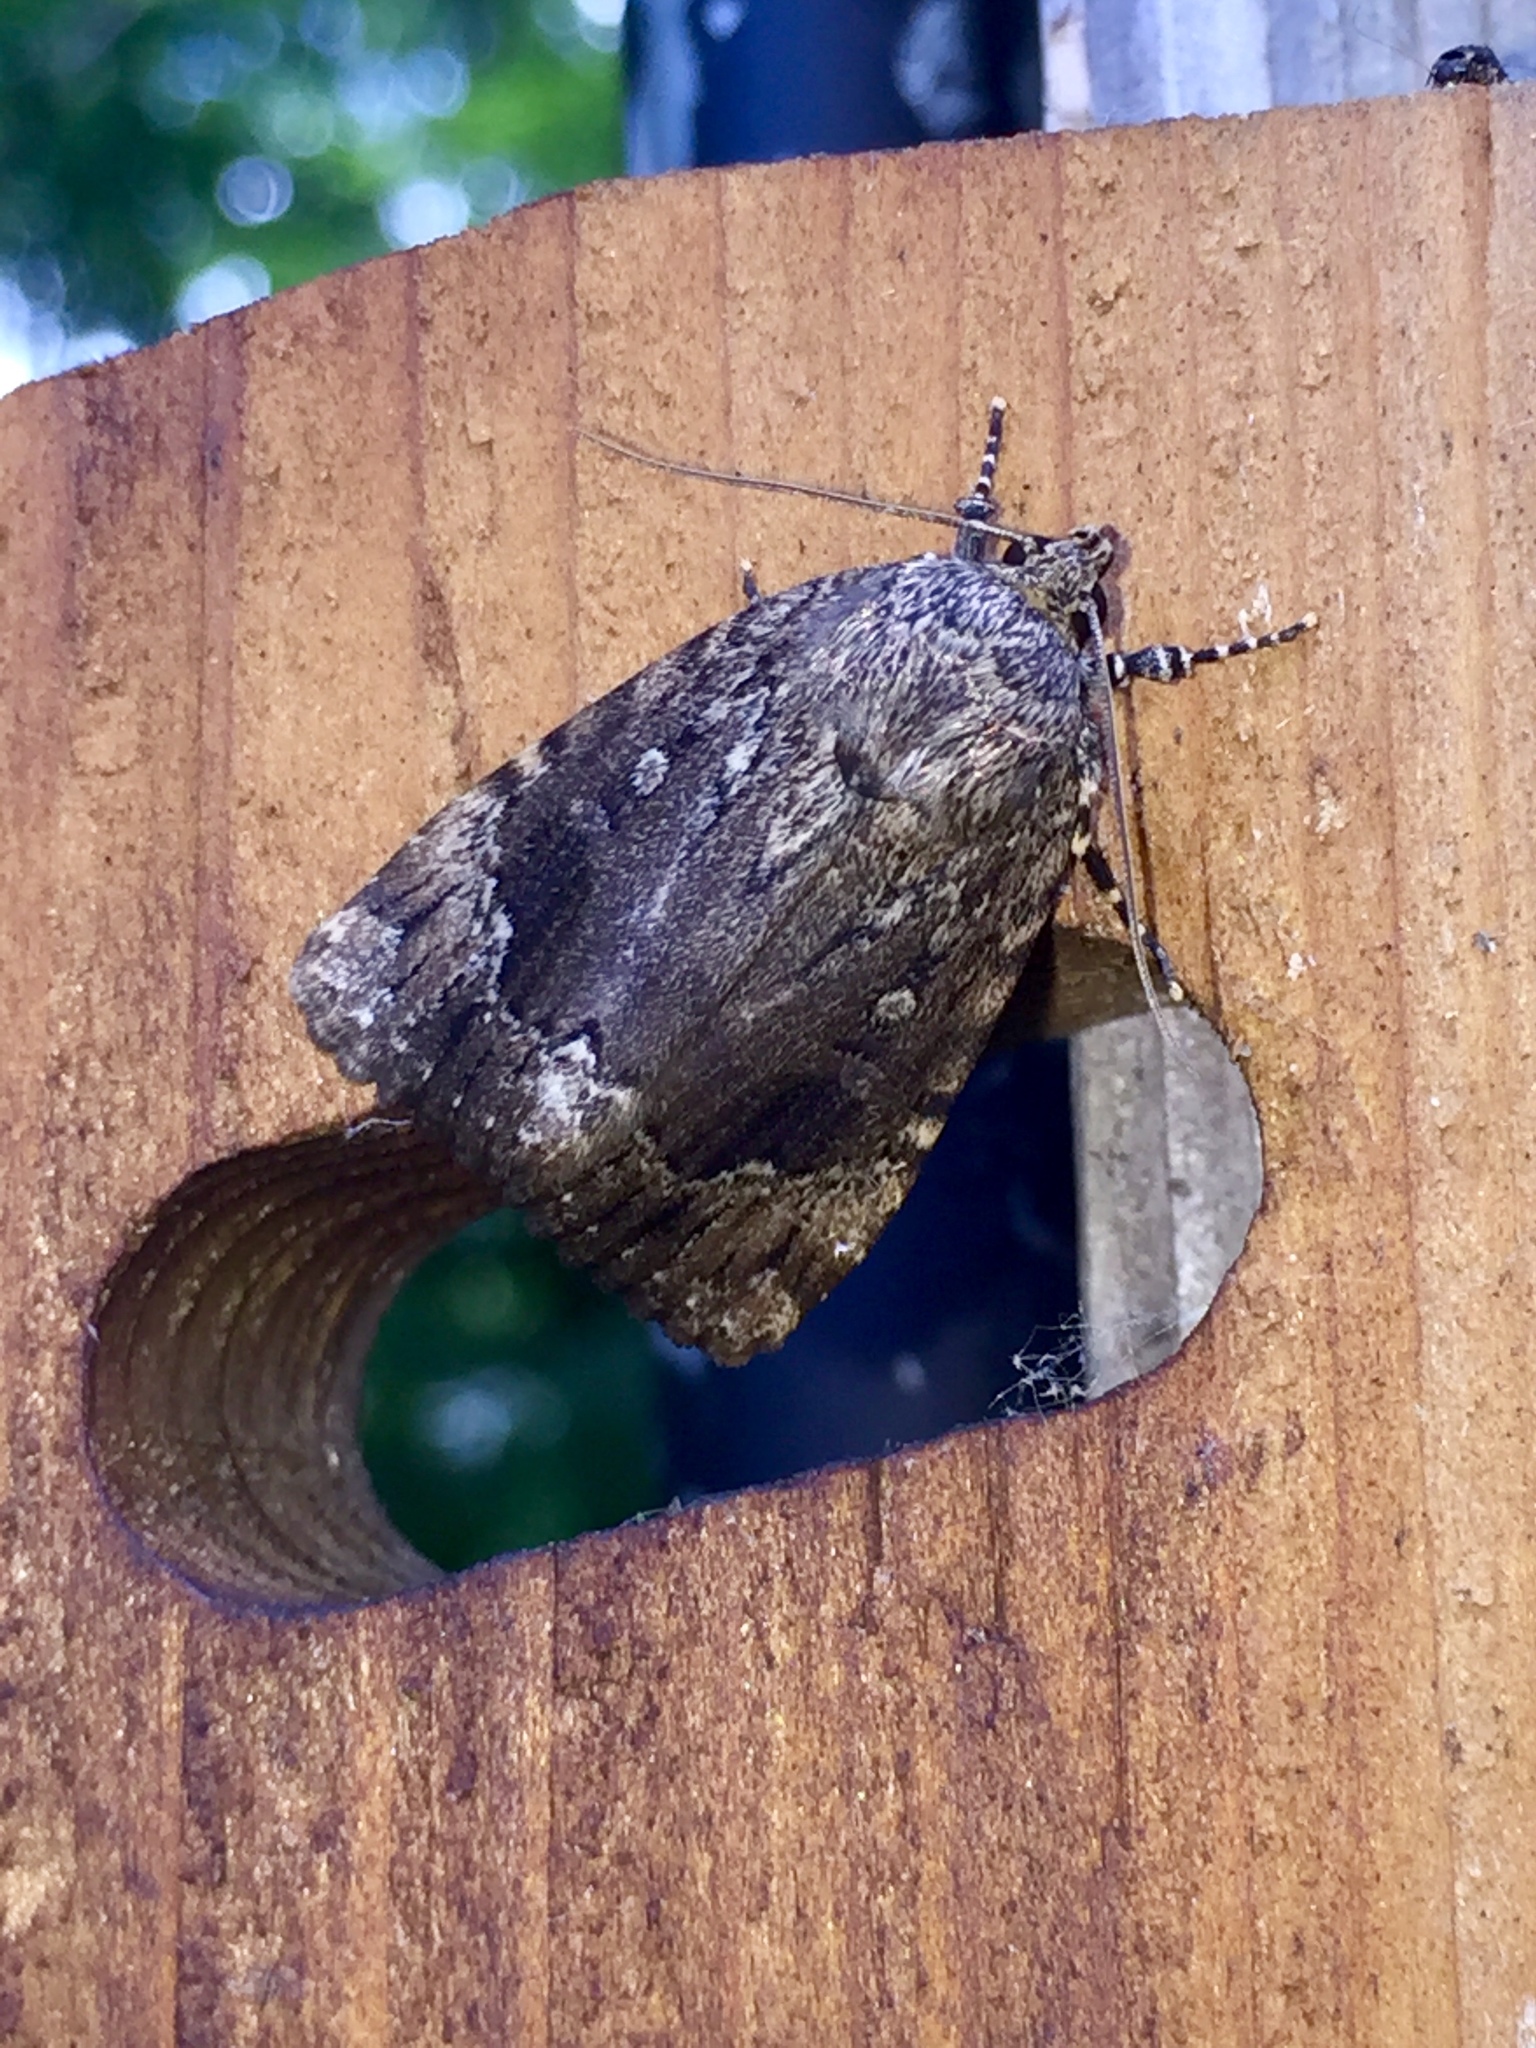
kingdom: Animalia
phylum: Arthropoda
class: Insecta
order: Lepidoptera
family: Noctuidae
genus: Amphipyra
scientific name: Amphipyra pyramidoides
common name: American copper underwing
